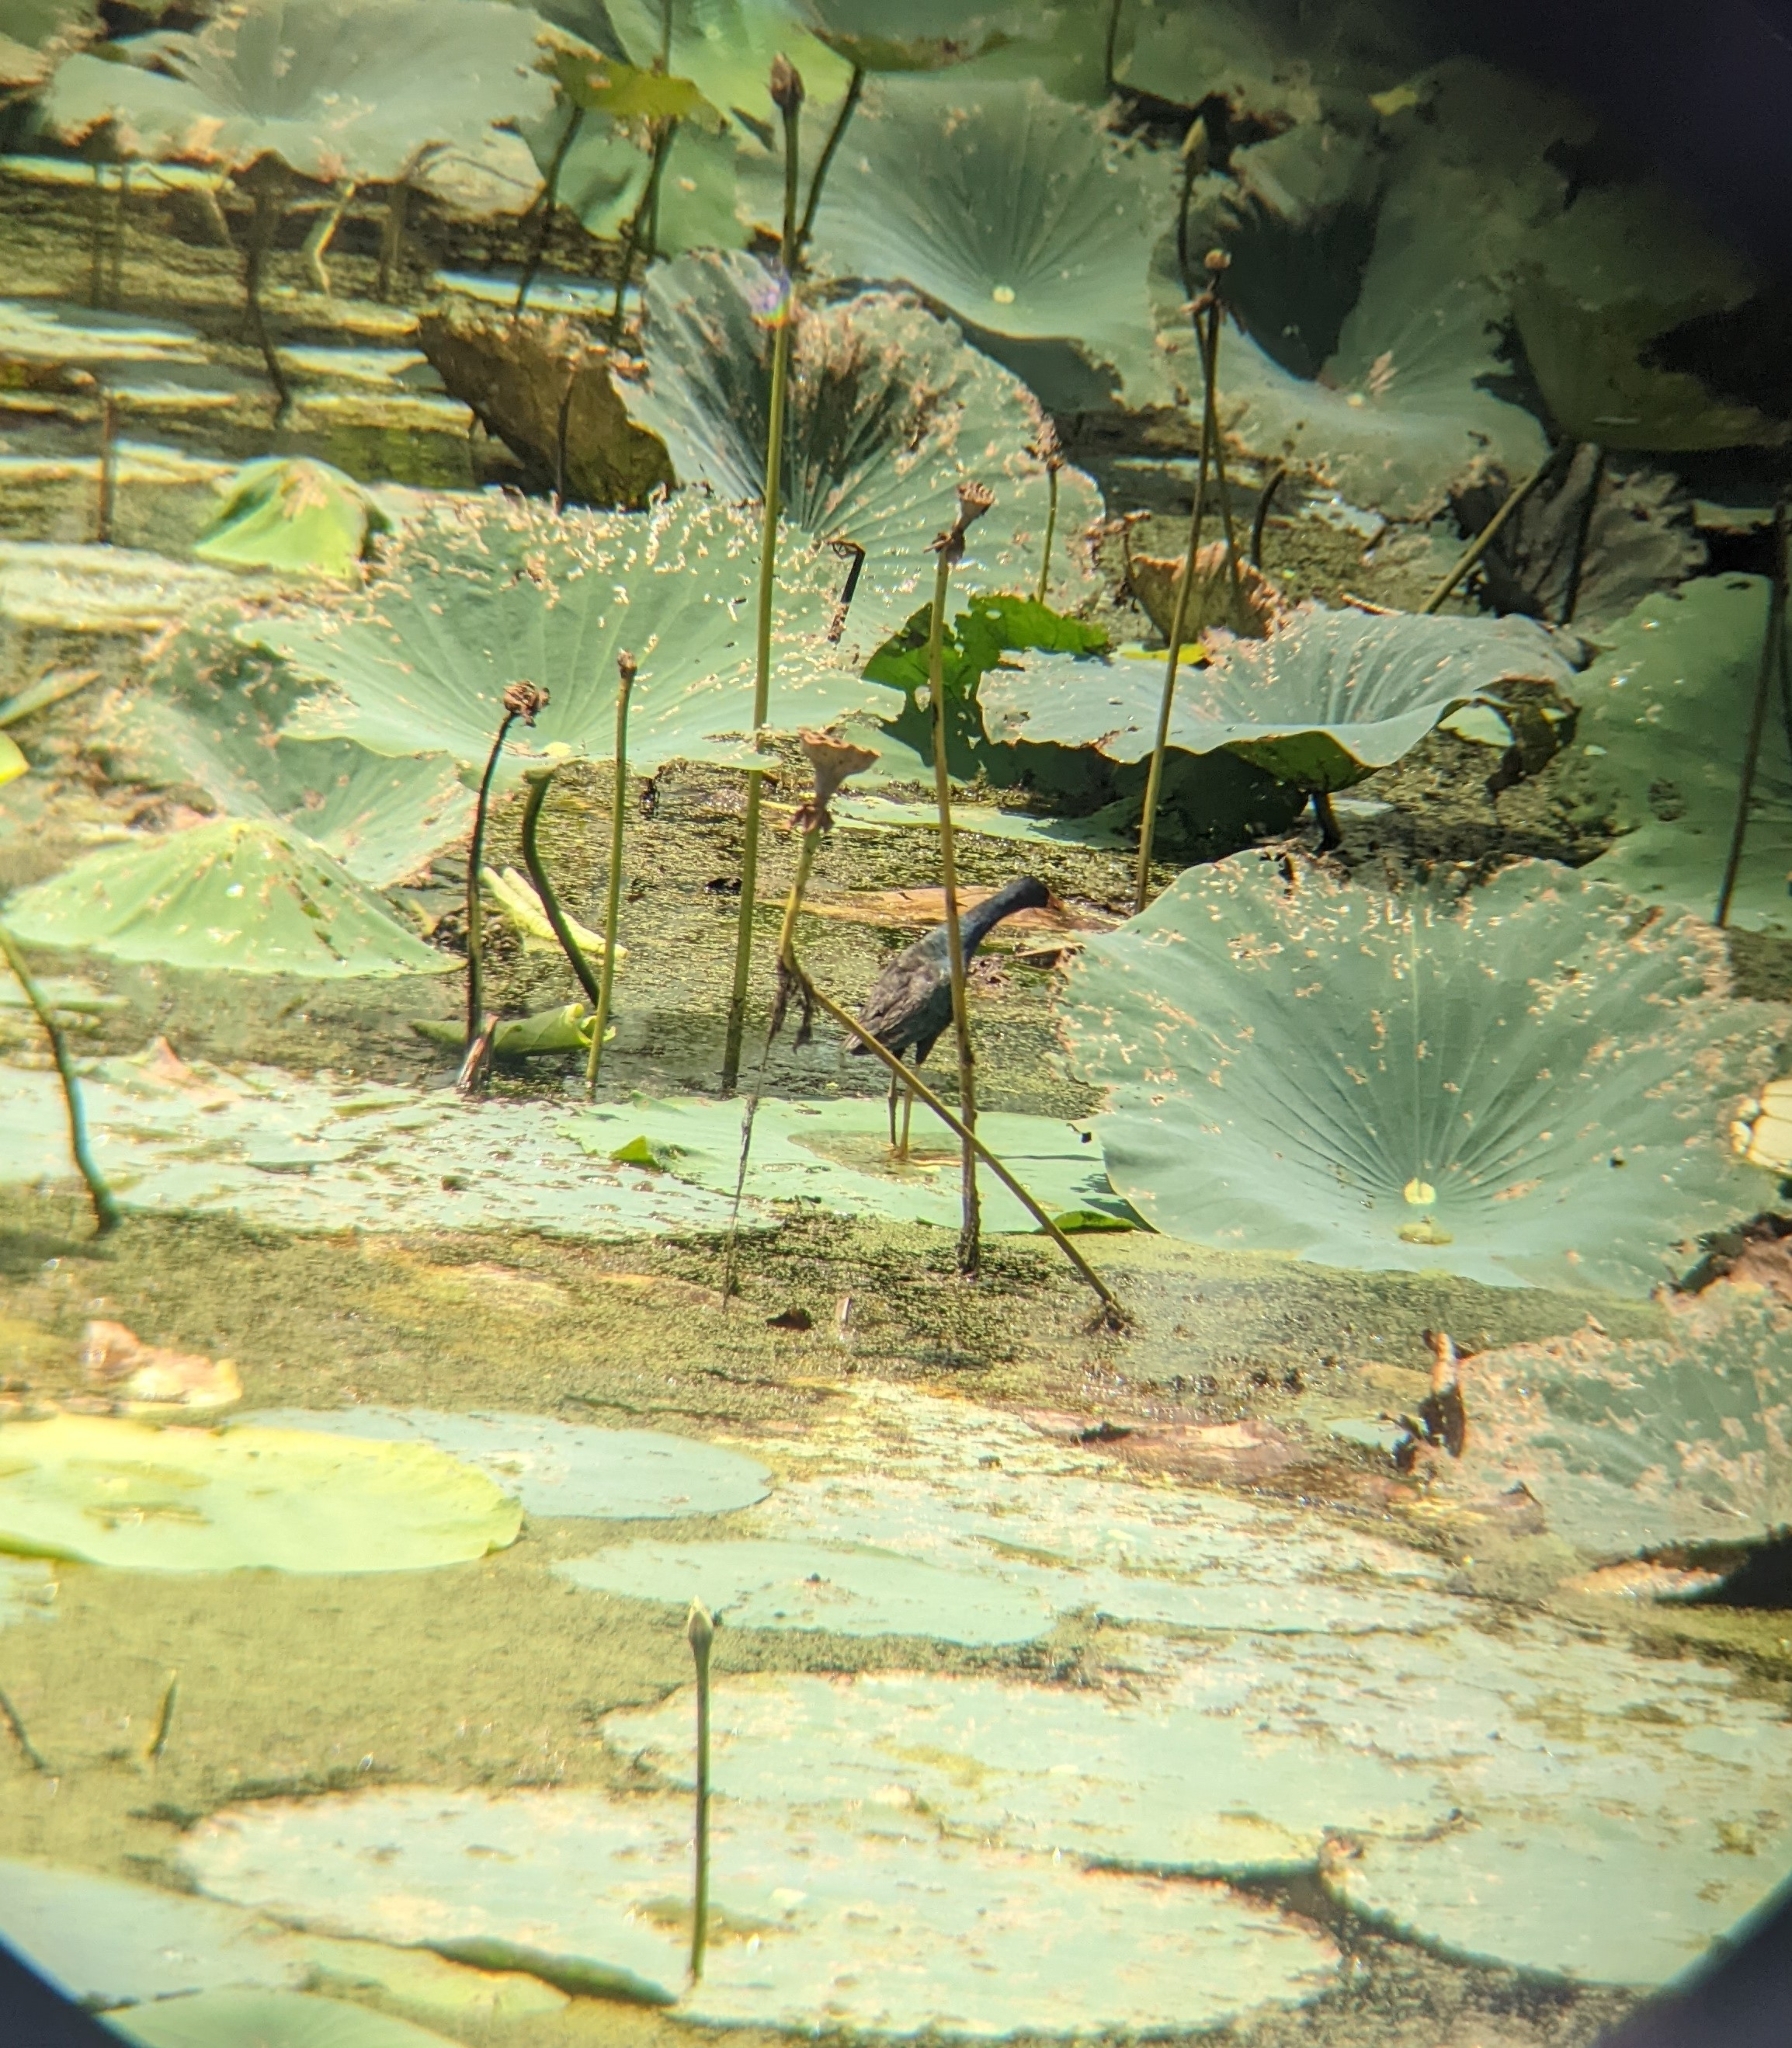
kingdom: Animalia
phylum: Chordata
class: Aves
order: Gruiformes
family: Rallidae
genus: Porphyrio
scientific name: Porphyrio martinica
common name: Purple gallinule
